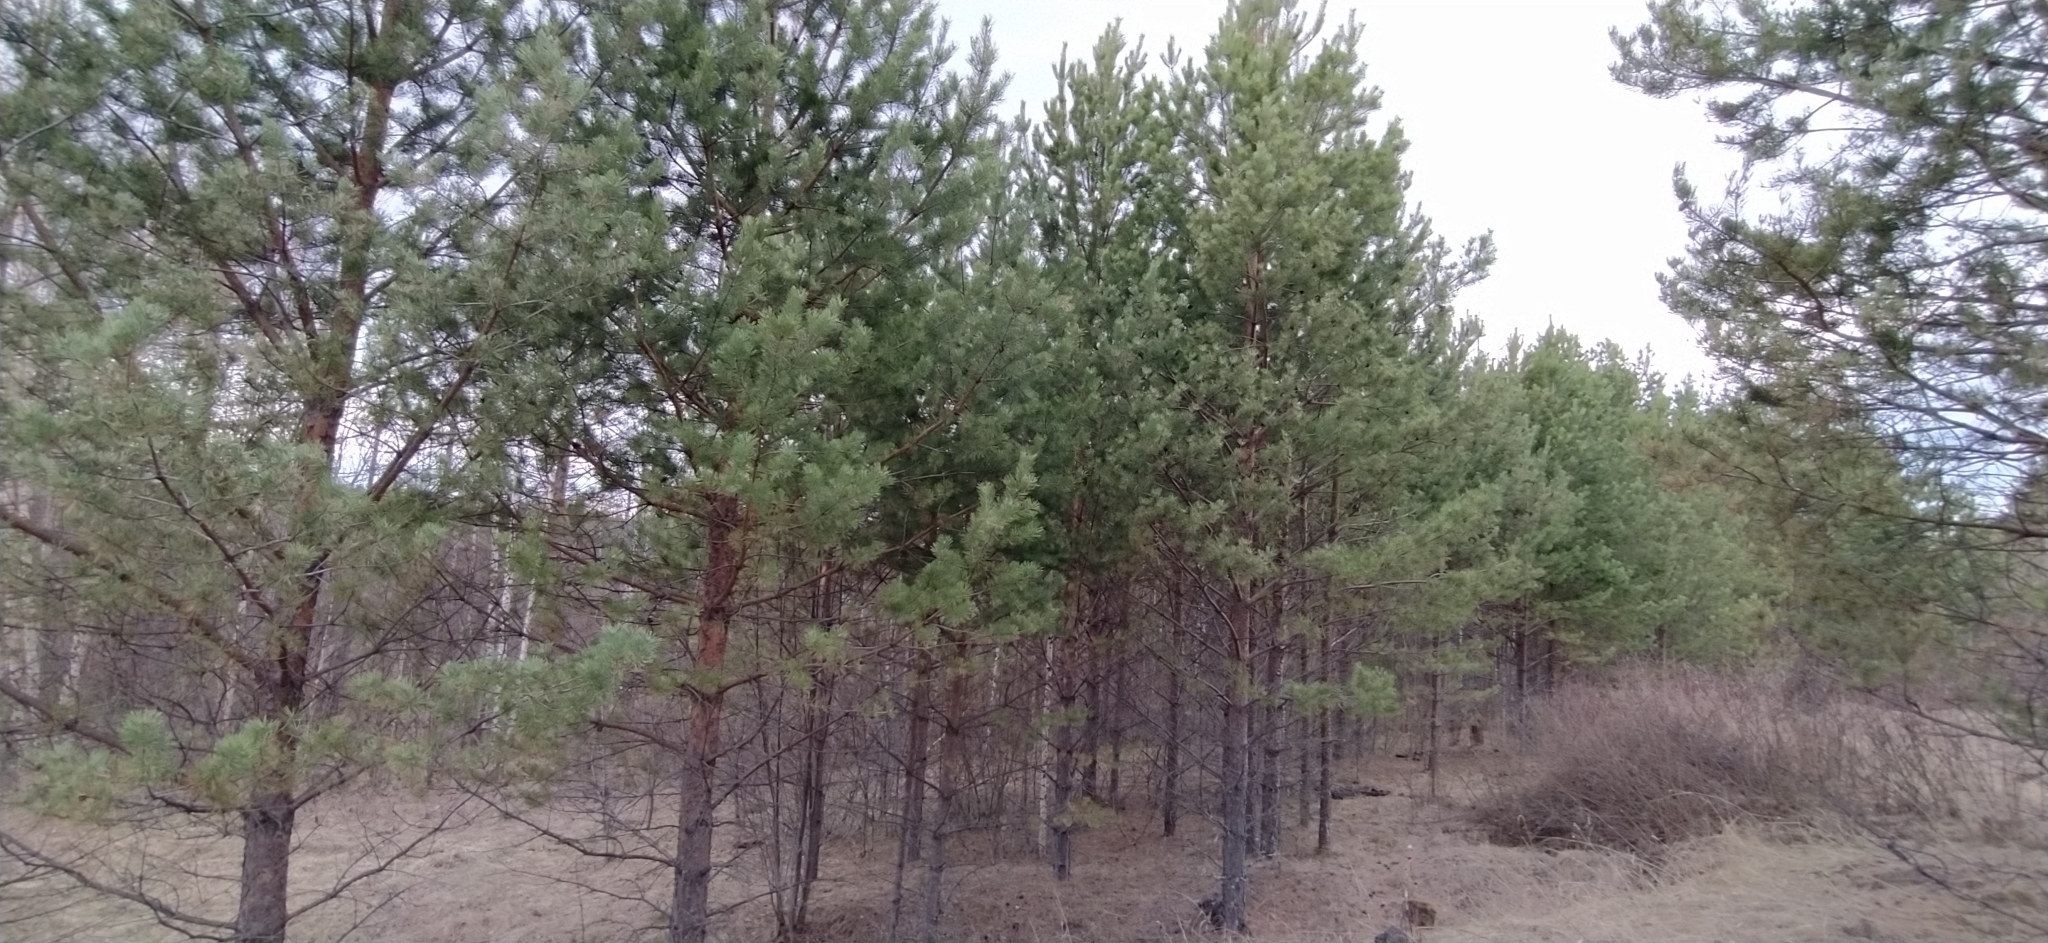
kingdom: Plantae
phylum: Tracheophyta
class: Pinopsida
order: Pinales
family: Pinaceae
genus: Pinus
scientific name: Pinus sylvestris
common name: Scots pine
